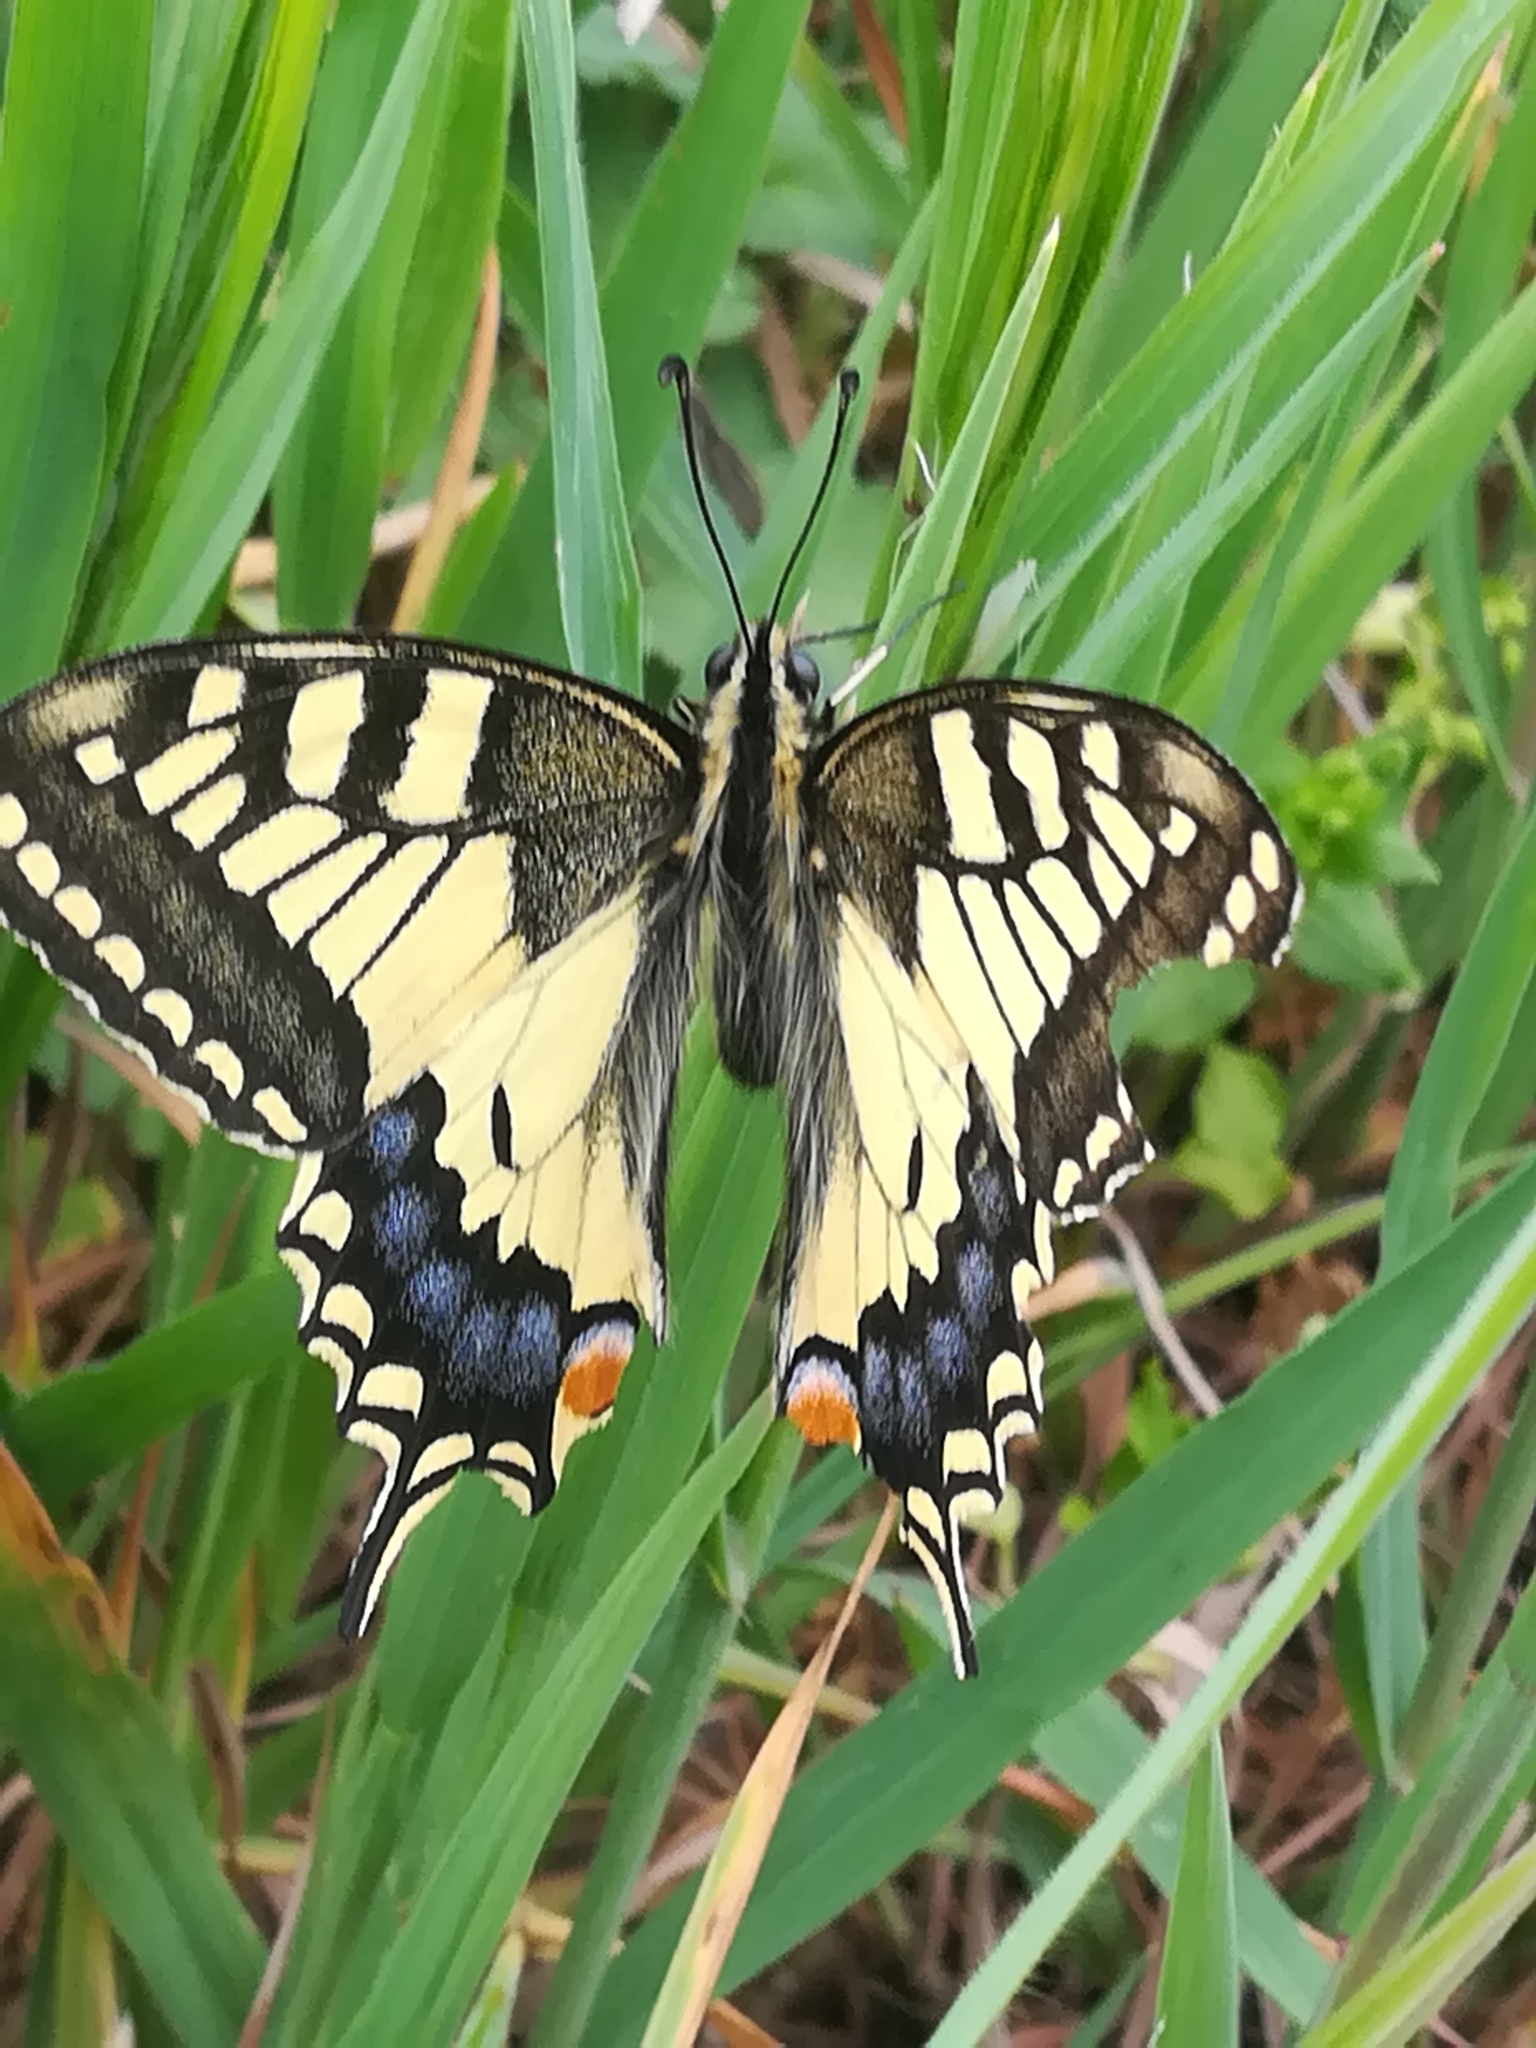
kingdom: Animalia
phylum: Arthropoda
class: Insecta
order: Lepidoptera
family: Papilionidae
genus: Papilio
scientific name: Papilio machaon
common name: Swallowtail
